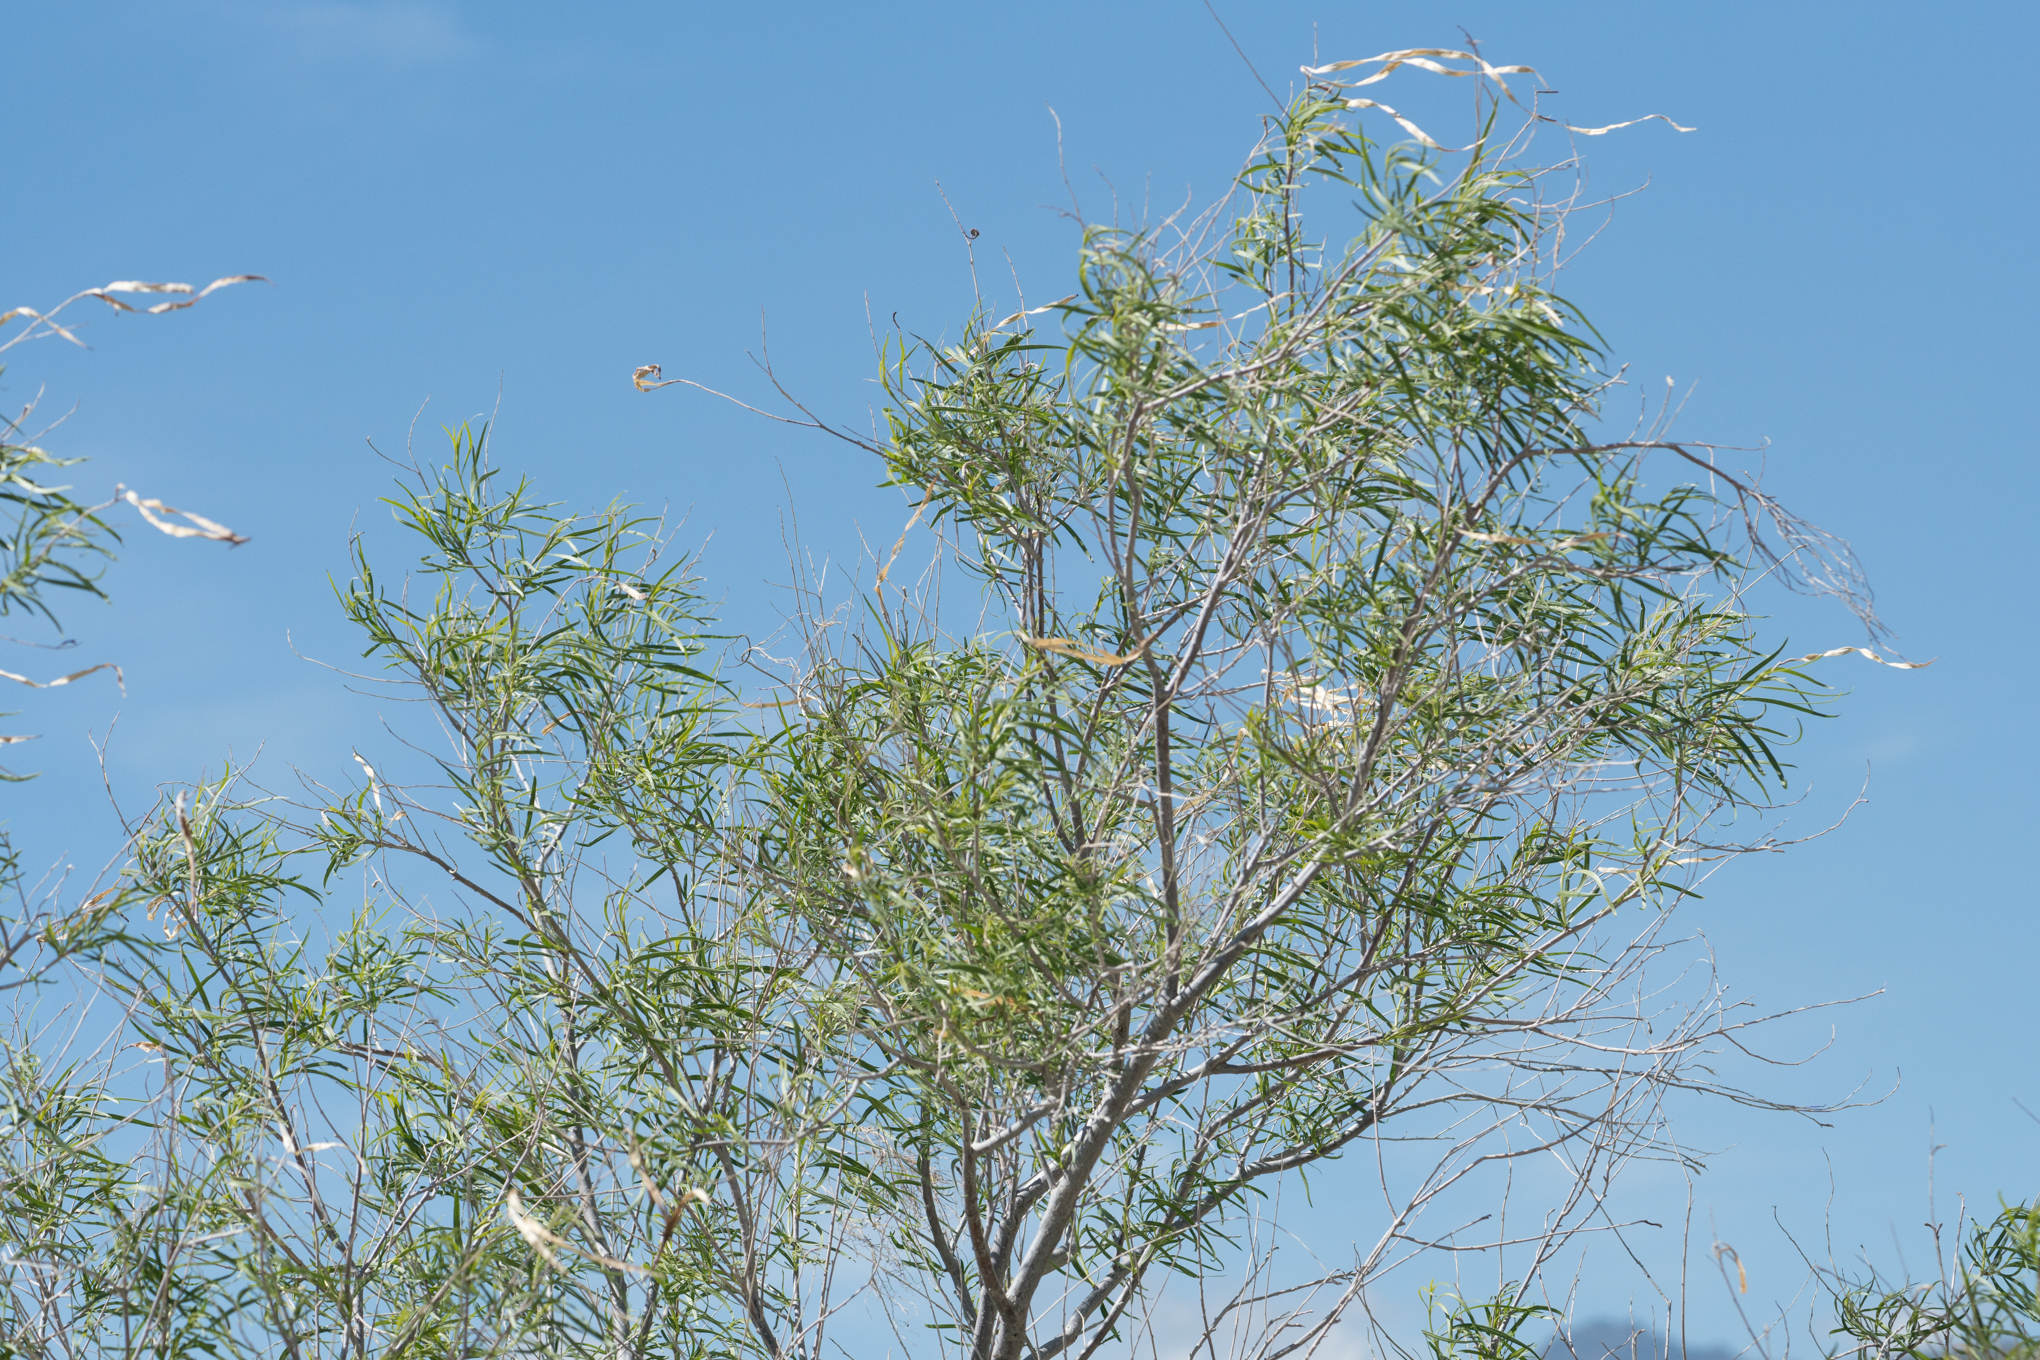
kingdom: Plantae
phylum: Tracheophyta
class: Magnoliopsida
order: Lamiales
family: Bignoniaceae
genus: Chilopsis
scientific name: Chilopsis linearis
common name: Desert-willow
